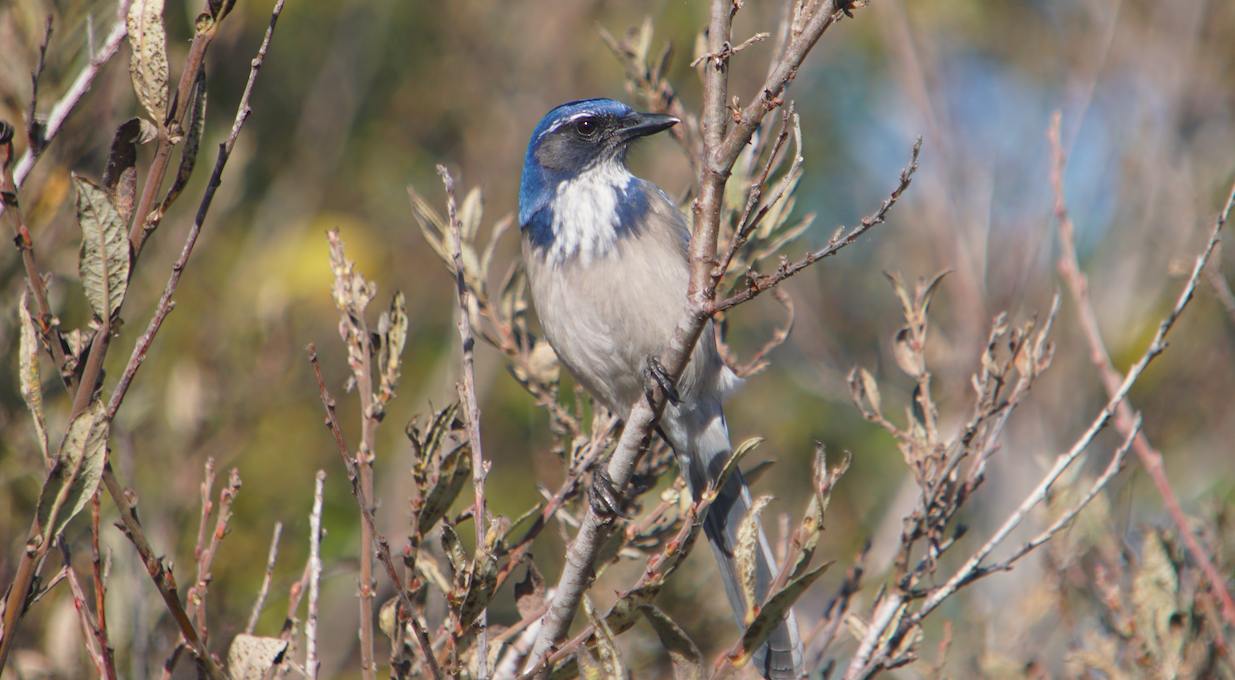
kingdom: Animalia
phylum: Chordata
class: Aves
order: Passeriformes
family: Corvidae
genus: Aphelocoma
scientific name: Aphelocoma californica
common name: California scrub-jay
